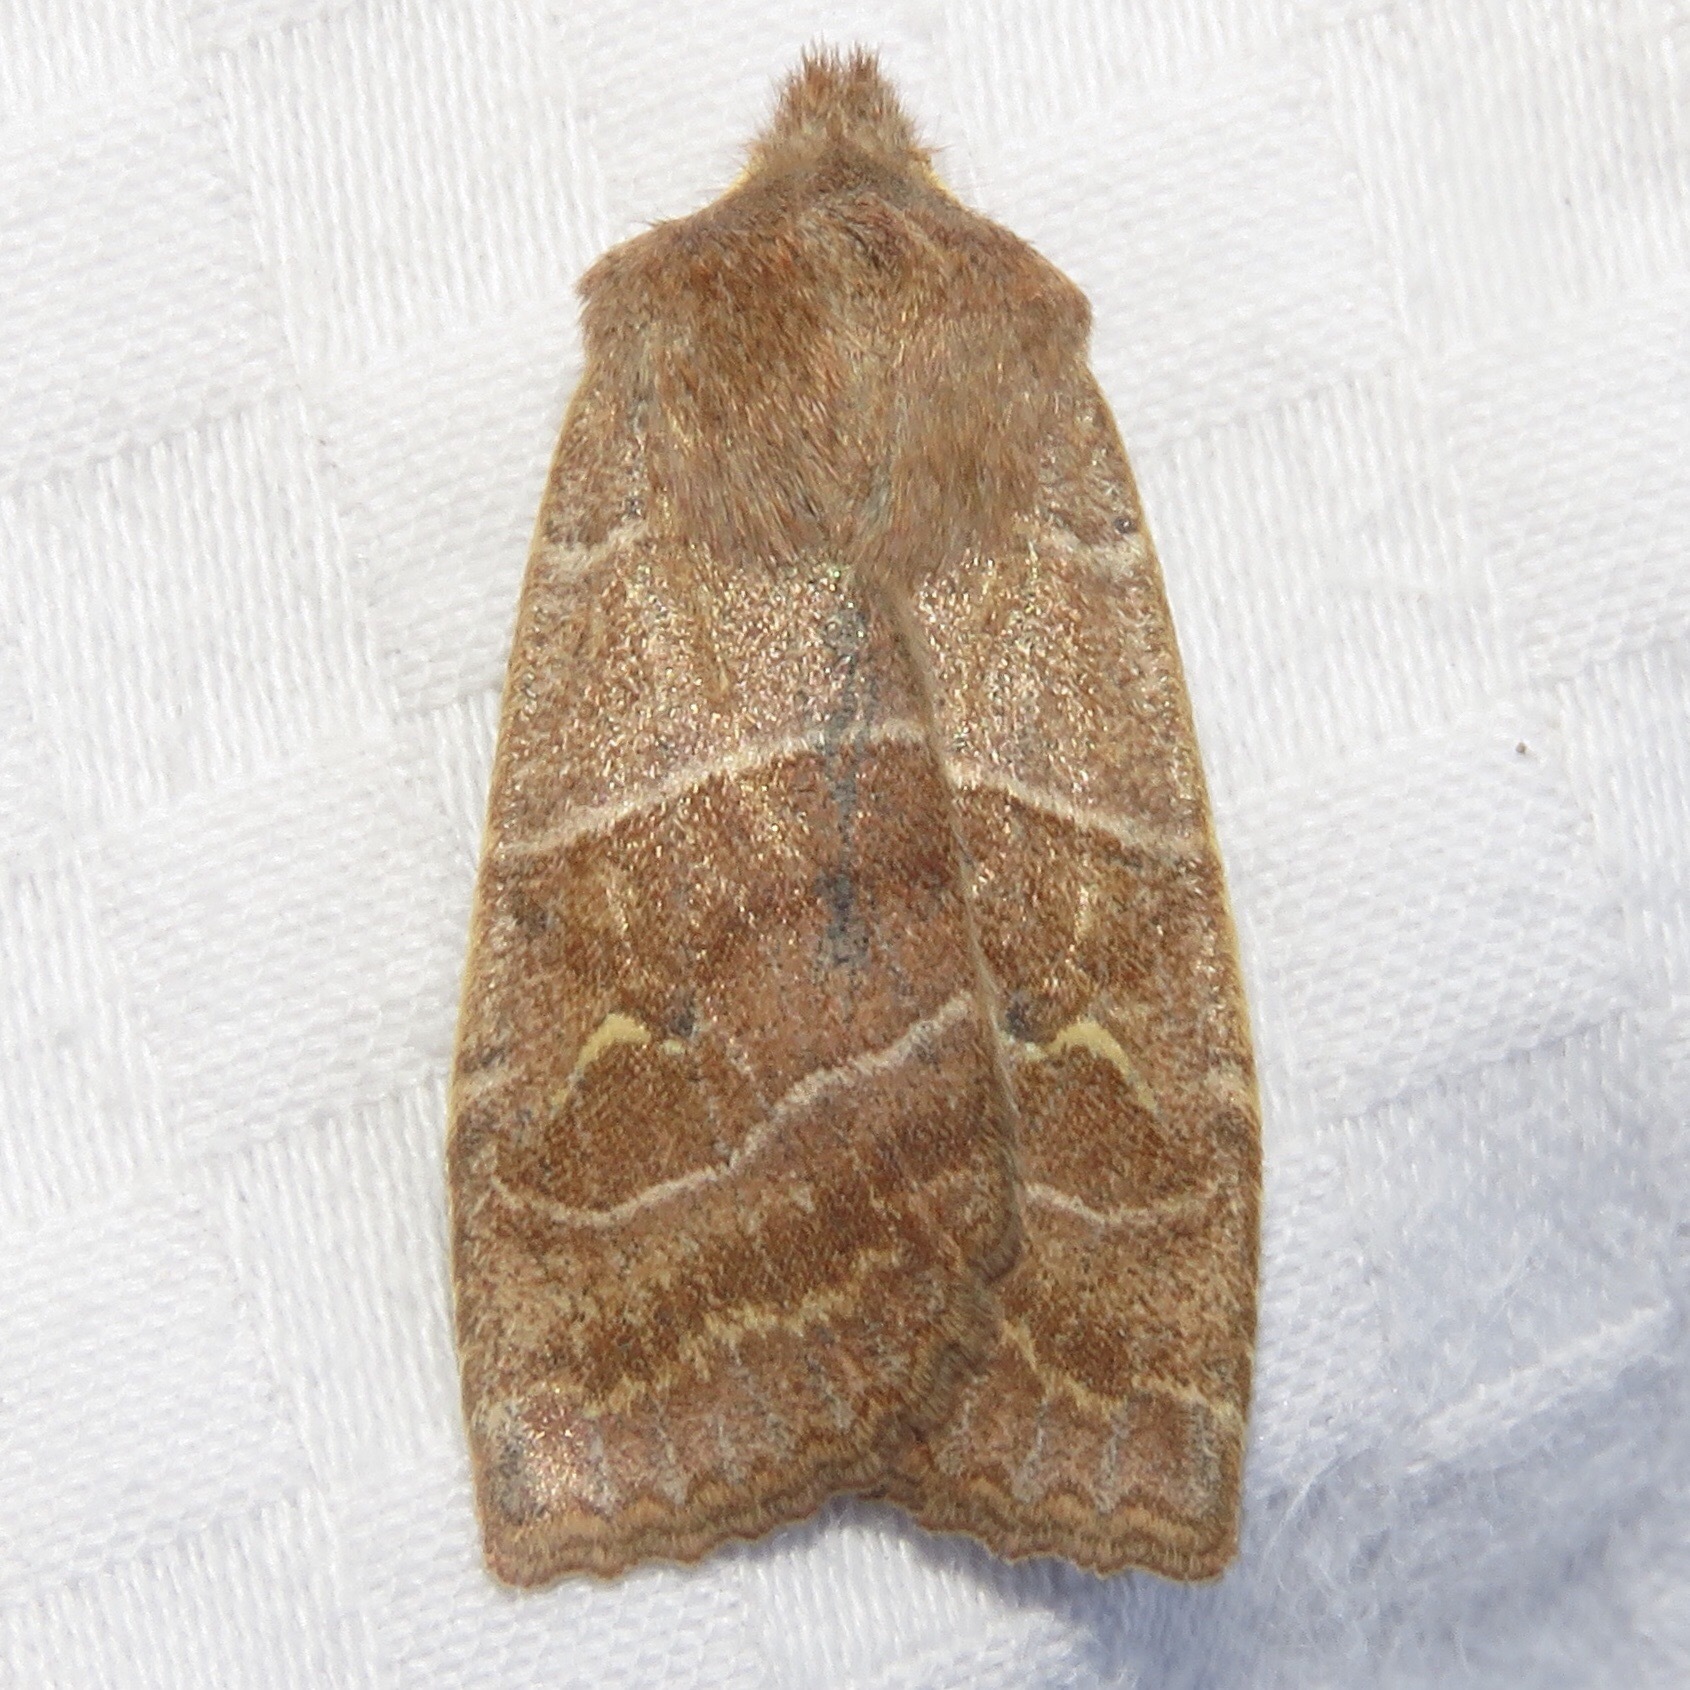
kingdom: Animalia
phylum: Arthropoda
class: Insecta
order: Lepidoptera
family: Noctuidae
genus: Eupsilia
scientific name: Eupsilia morrisoni
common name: Morrison's sallow
